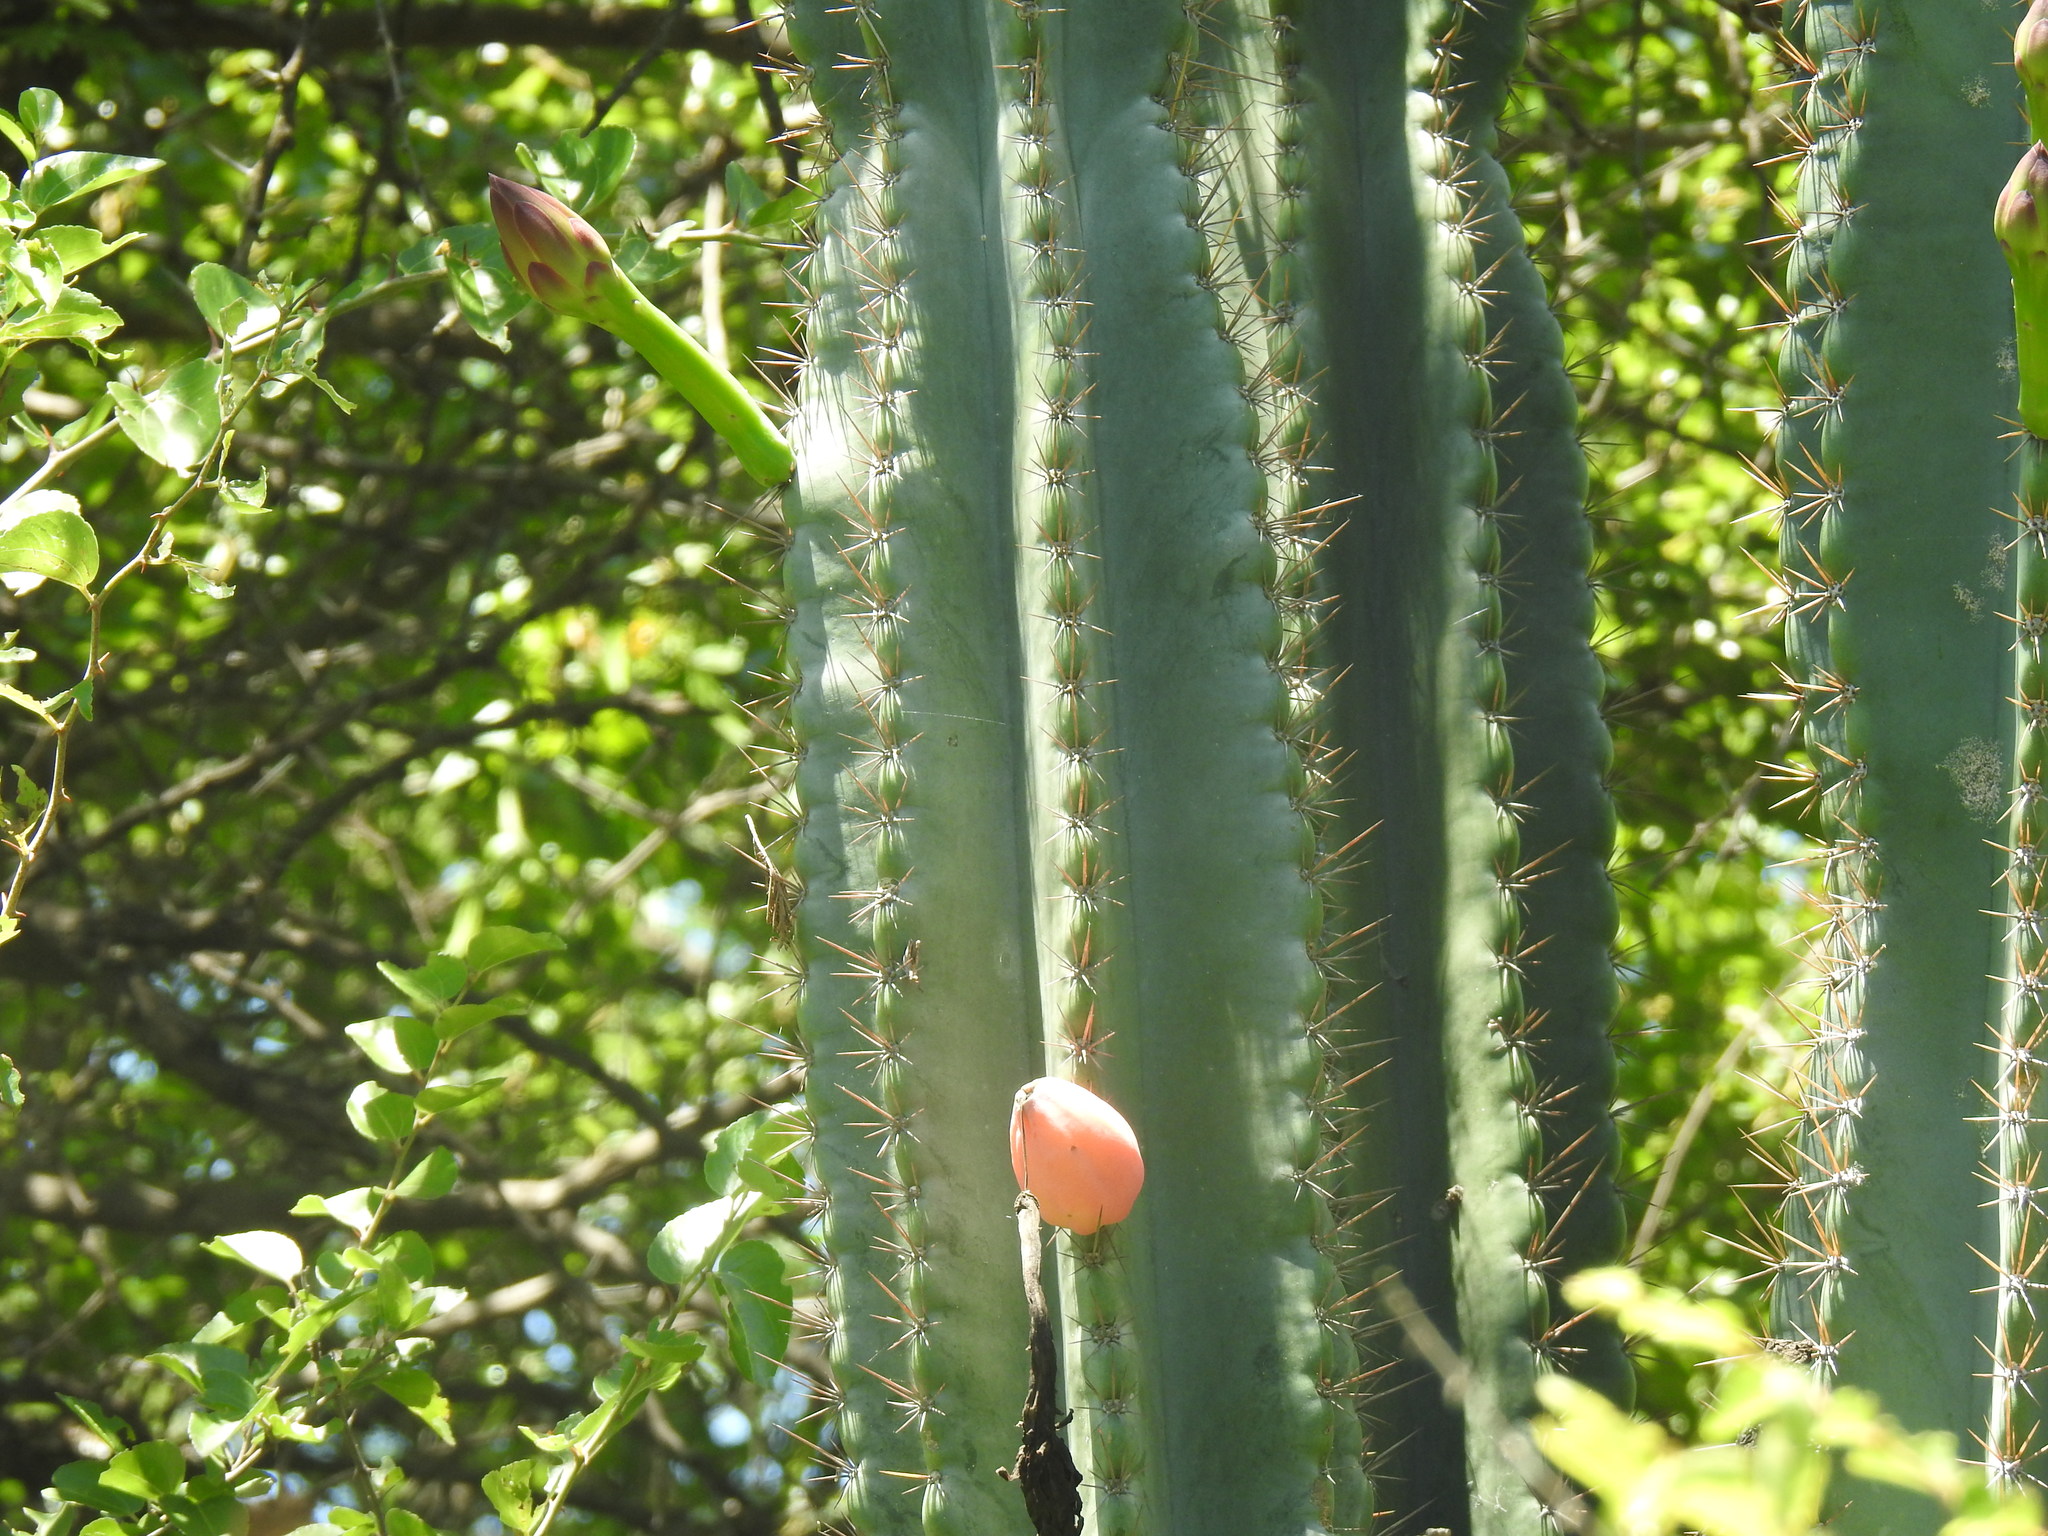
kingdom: Plantae
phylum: Tracheophyta
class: Magnoliopsida
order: Caryophyllales
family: Cactaceae
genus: Cereus
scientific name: Cereus jamacaru
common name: Queen-of-the-night
